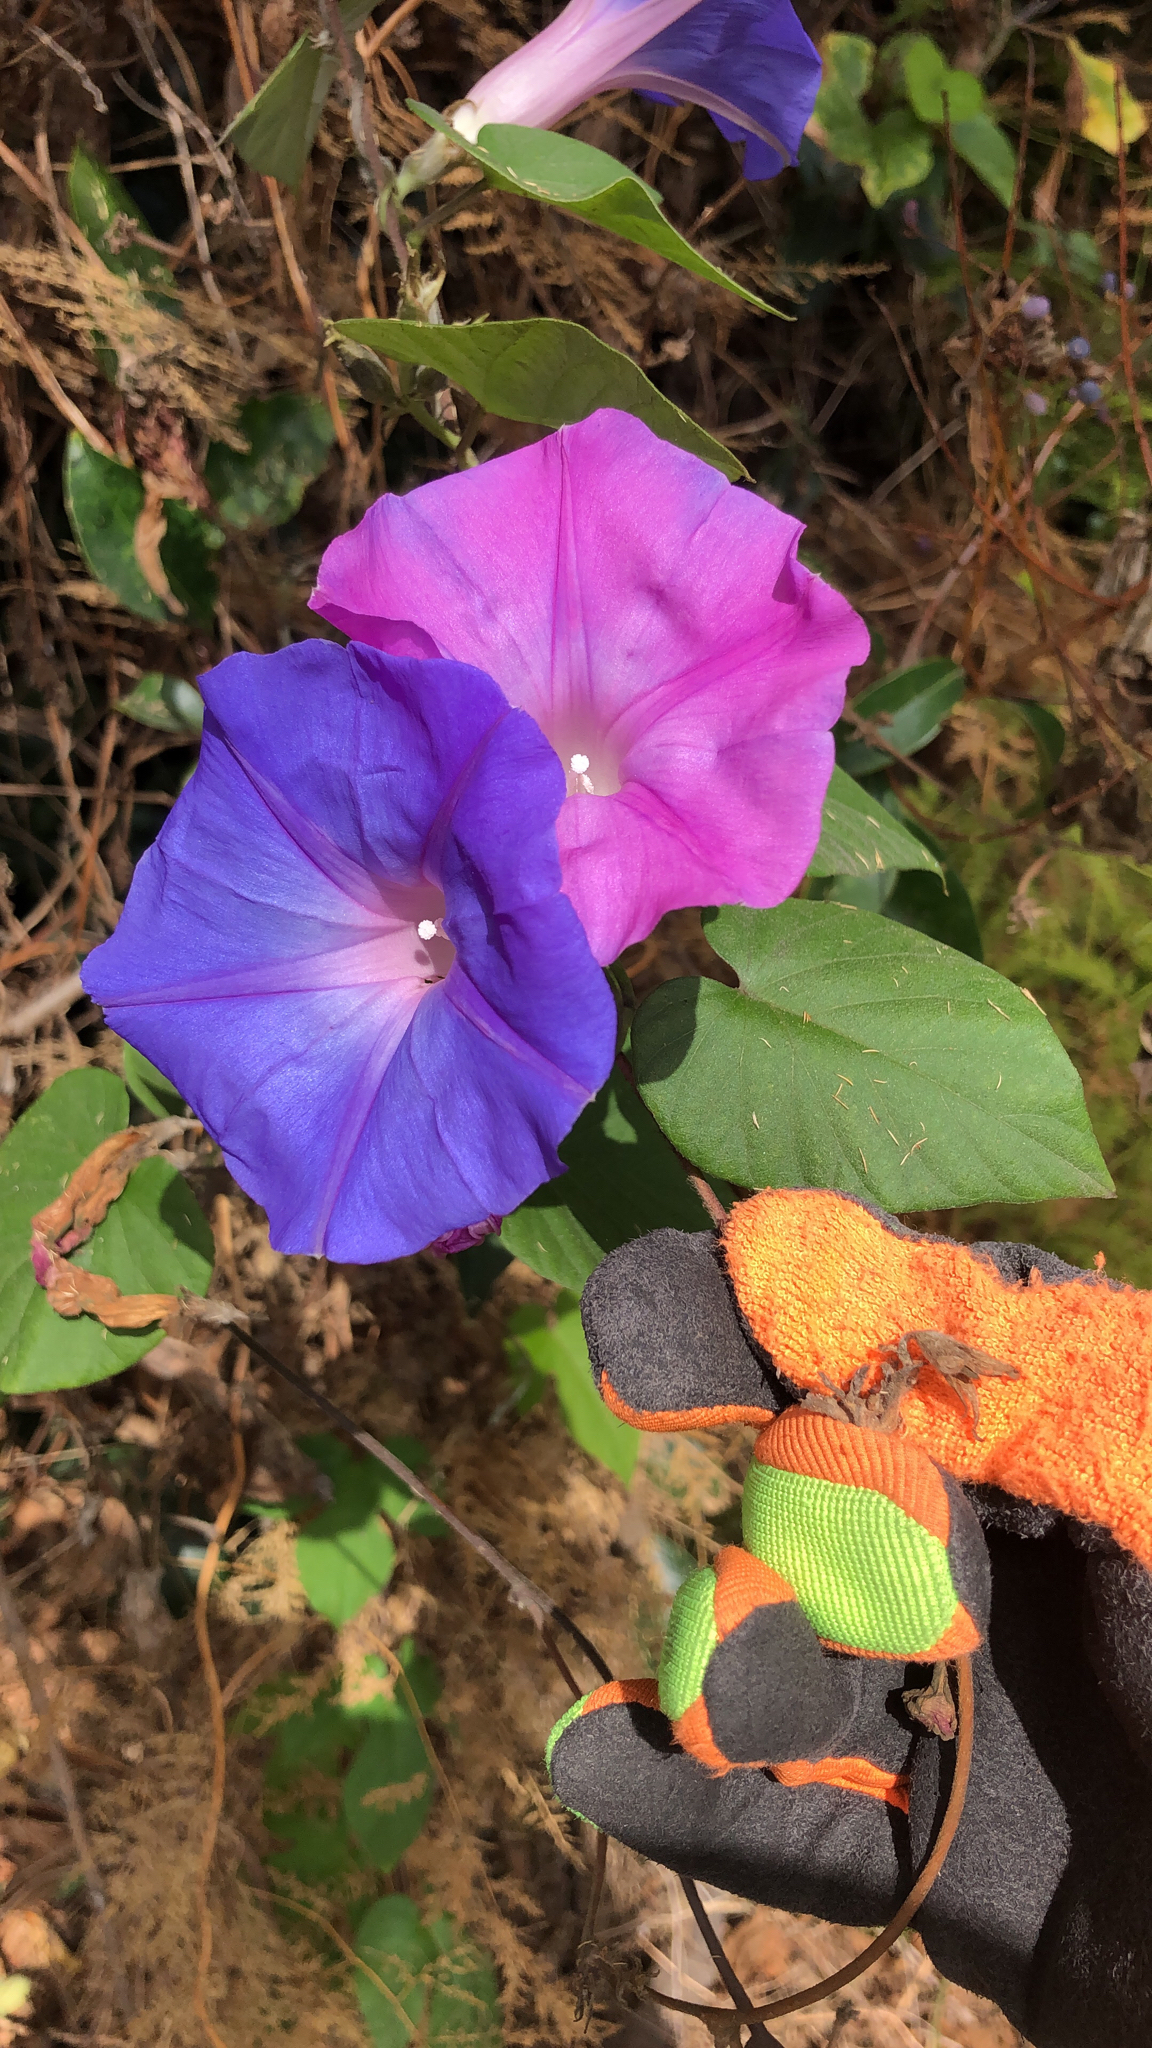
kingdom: Plantae
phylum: Tracheophyta
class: Magnoliopsida
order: Solanales
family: Convolvulaceae
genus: Ipomoea
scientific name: Ipomoea indica
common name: Blue dawnflower
